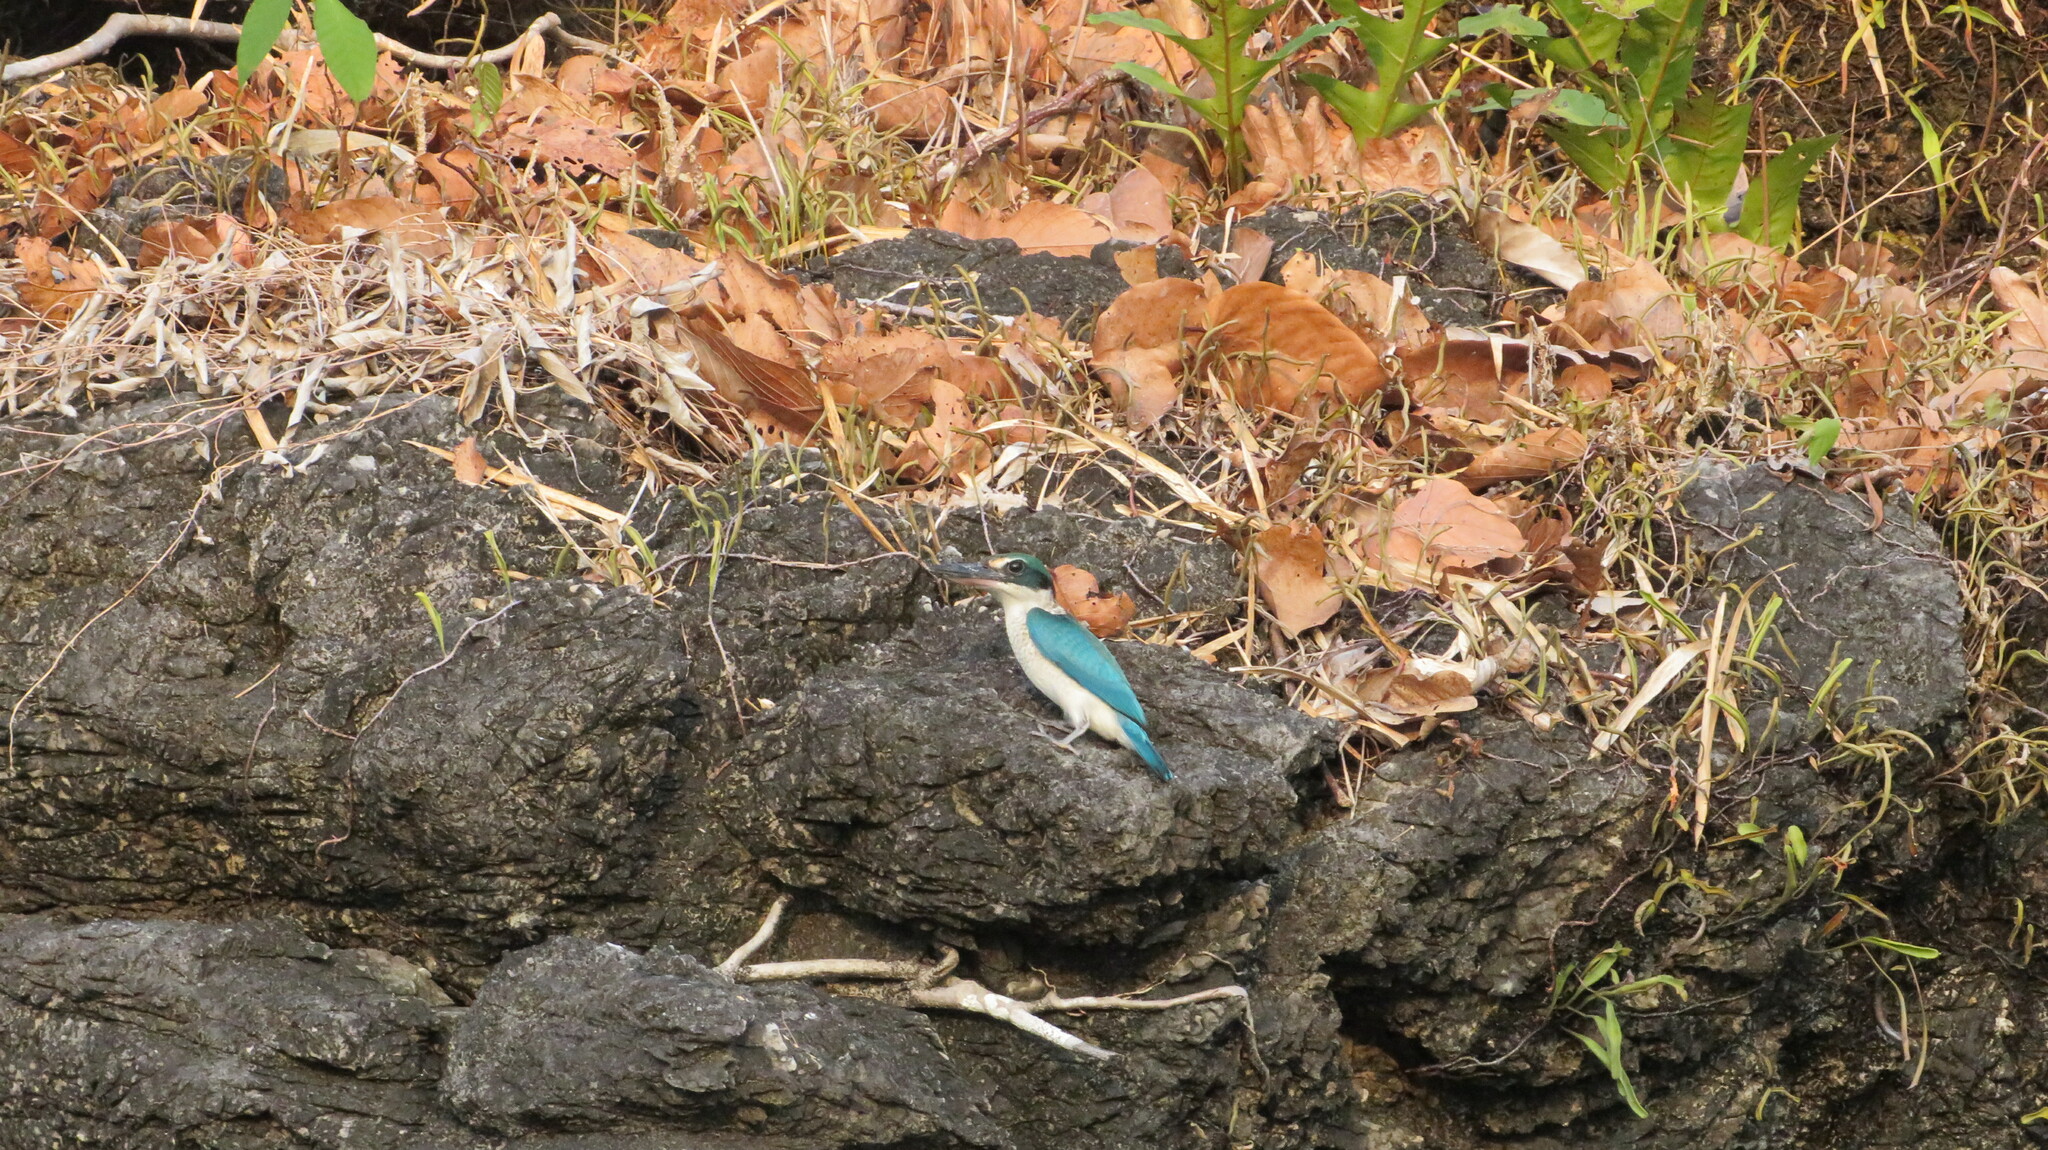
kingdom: Animalia
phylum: Chordata
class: Aves
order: Coraciiformes
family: Alcedinidae
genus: Todiramphus
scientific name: Todiramphus chloris
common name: Collared kingfisher
